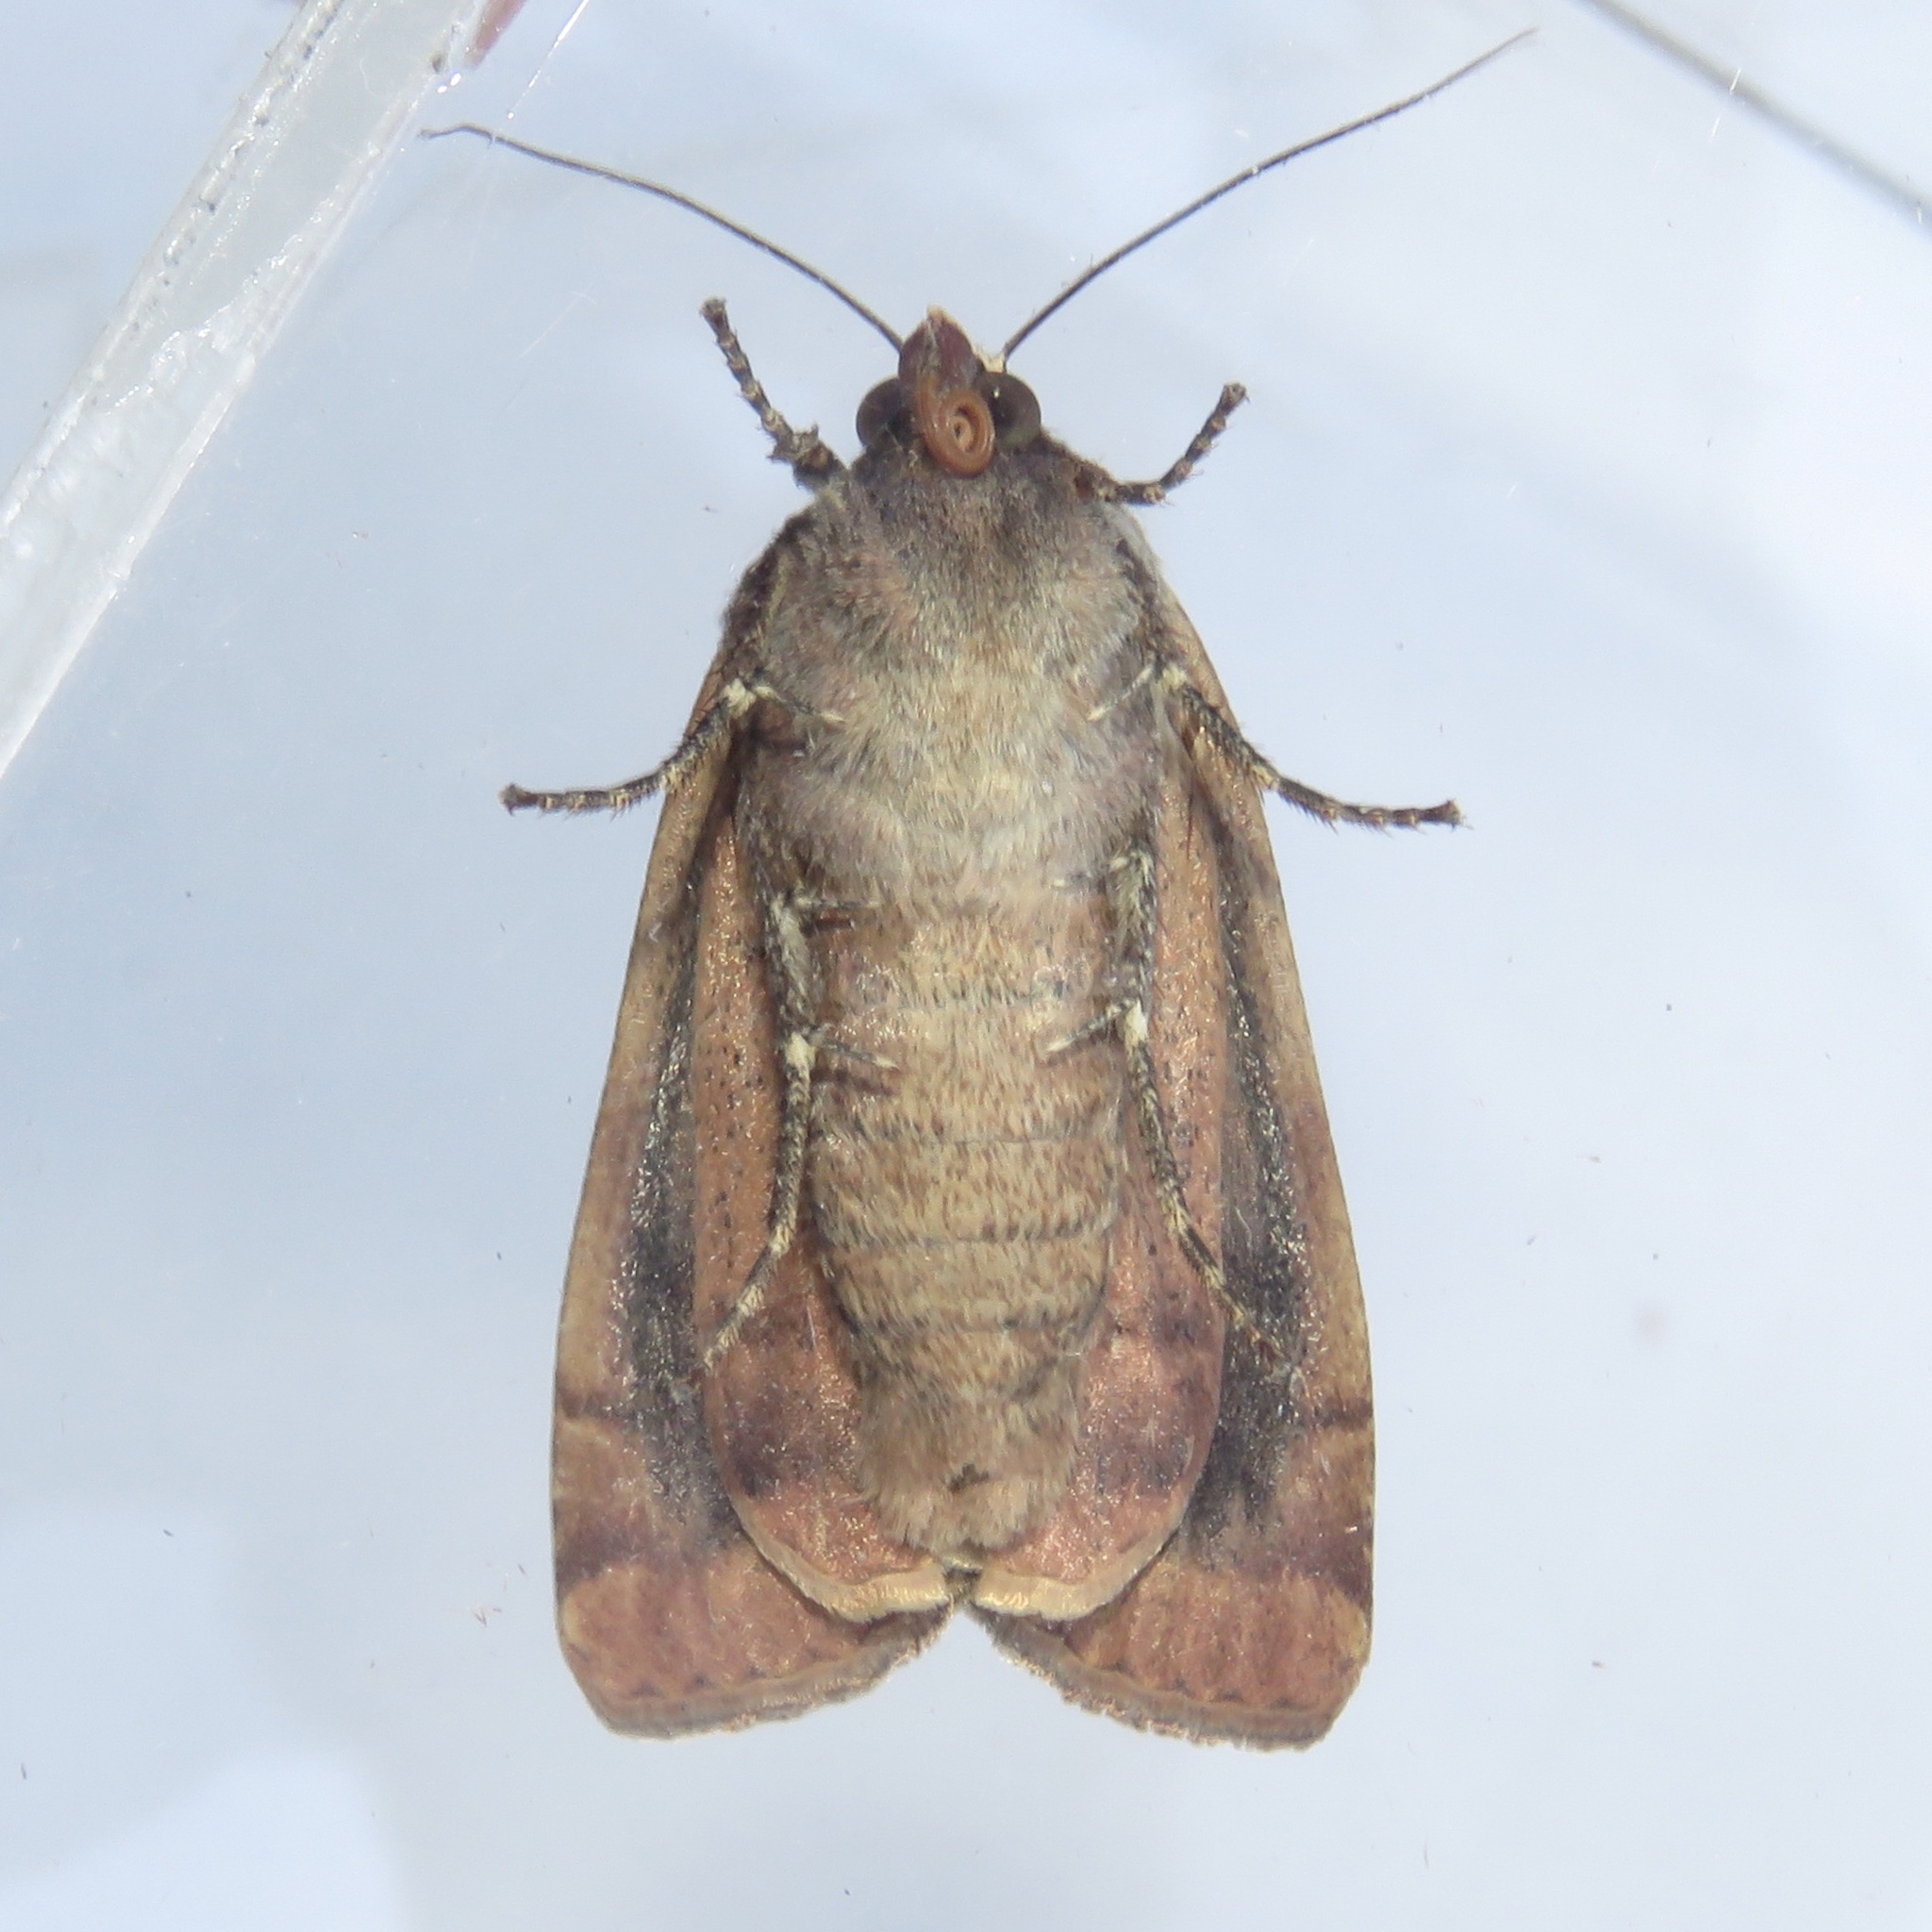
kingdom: Animalia
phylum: Arthropoda
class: Insecta
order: Lepidoptera
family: Noctuidae
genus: Noctua
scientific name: Noctua pronuba
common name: Large yellow underwing
